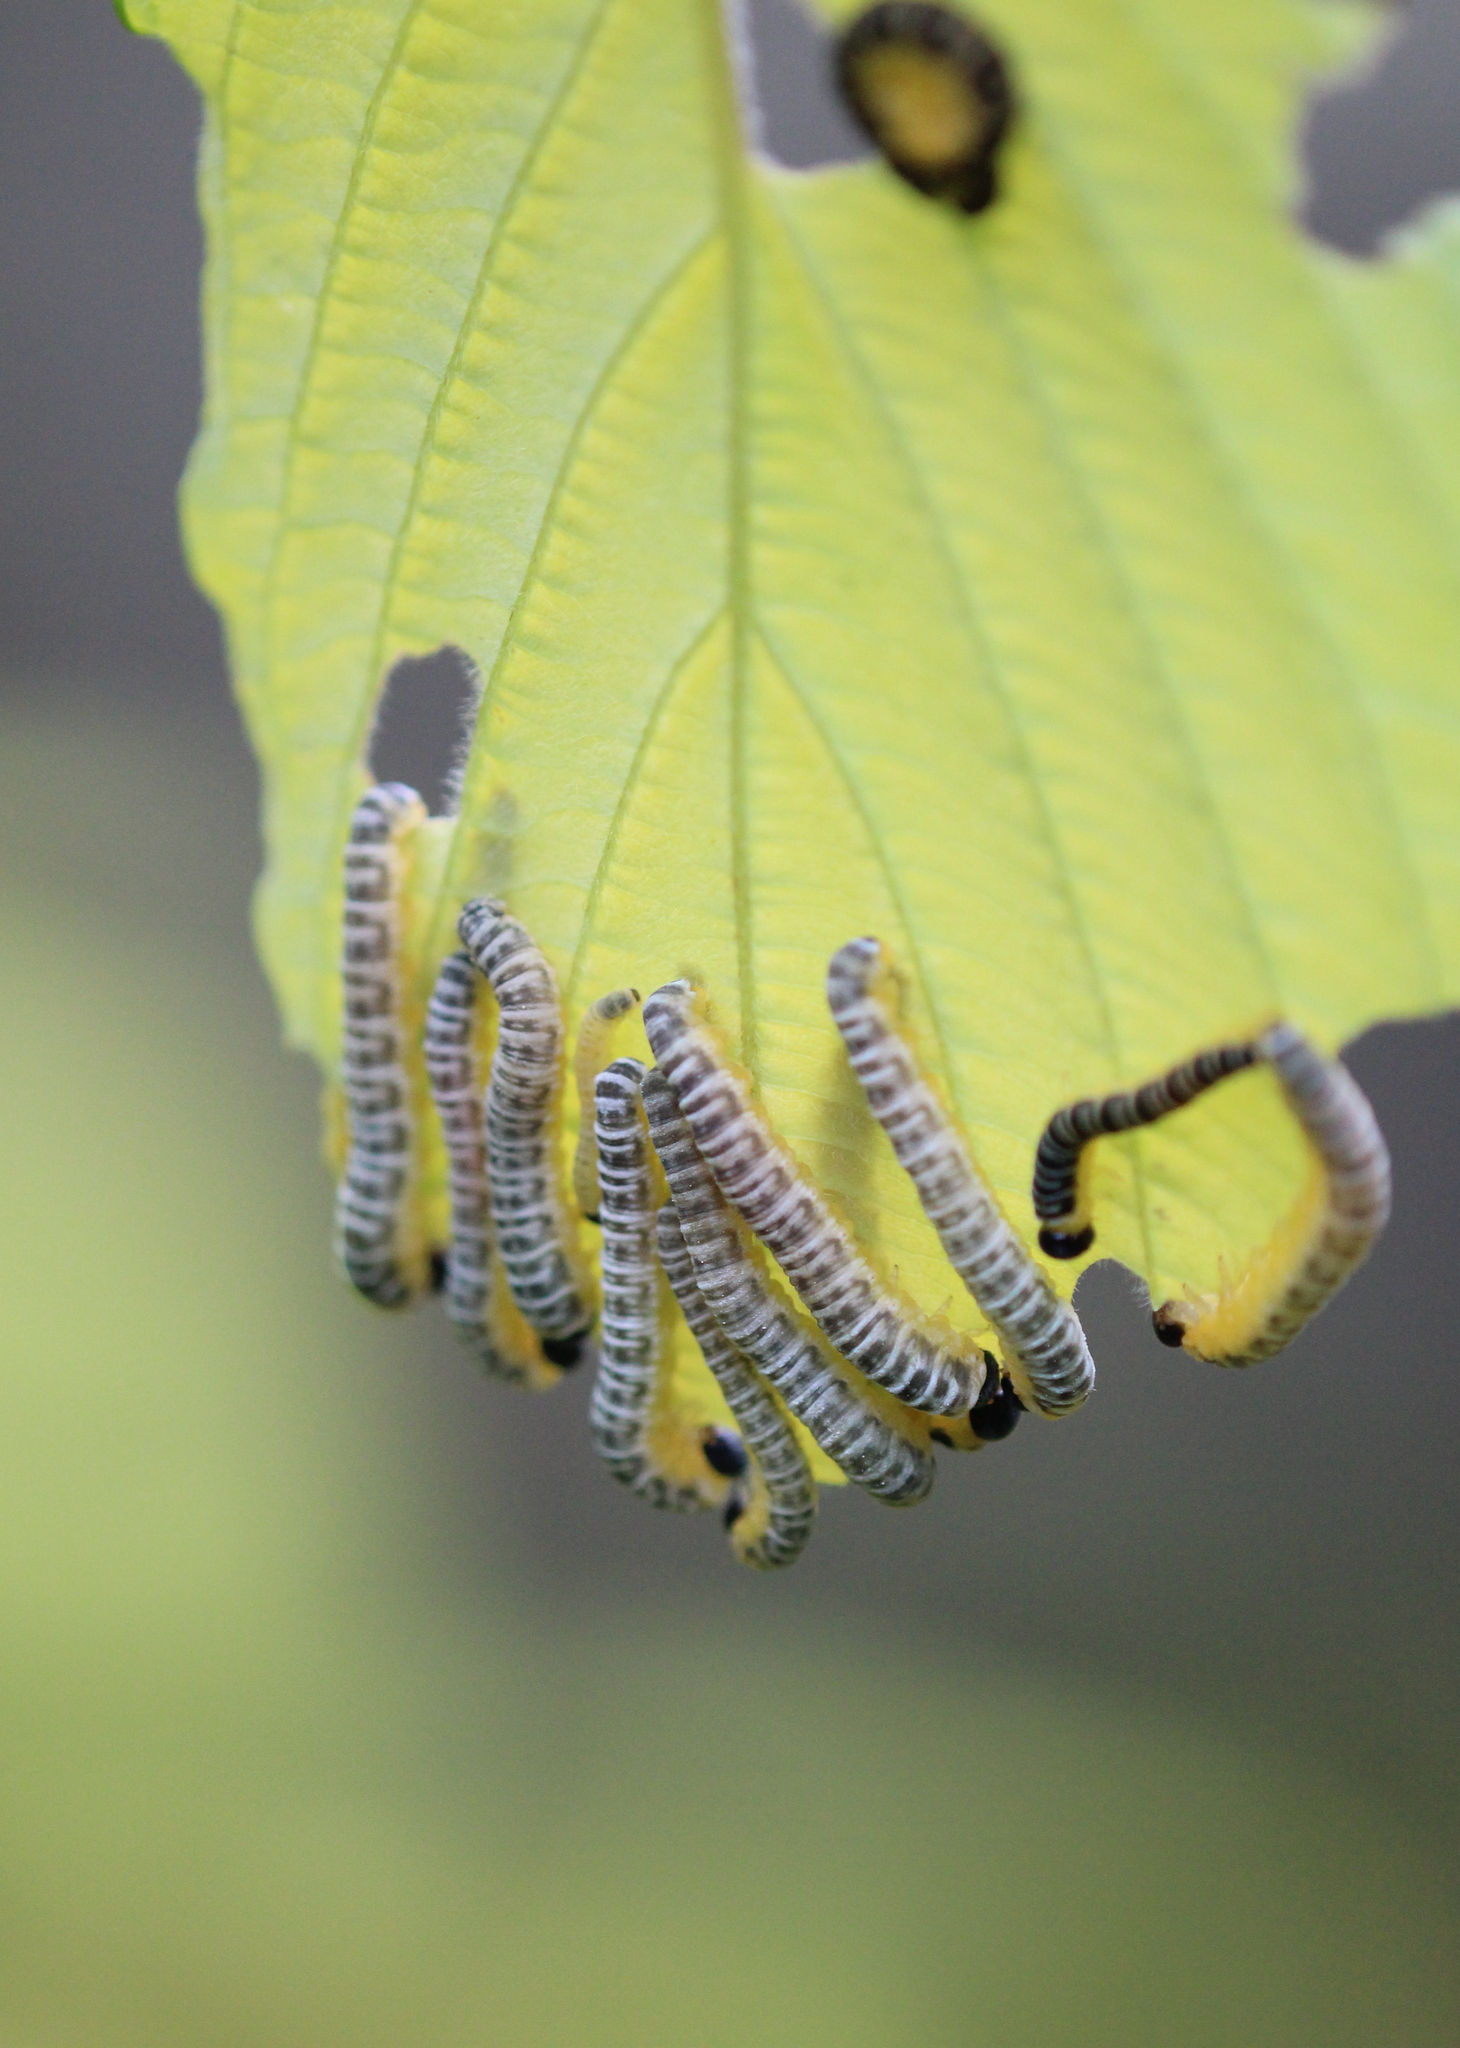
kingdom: Animalia
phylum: Arthropoda
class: Insecta
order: Hymenoptera
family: Tenthredinidae
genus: Macremphytus
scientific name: Macremphytus
